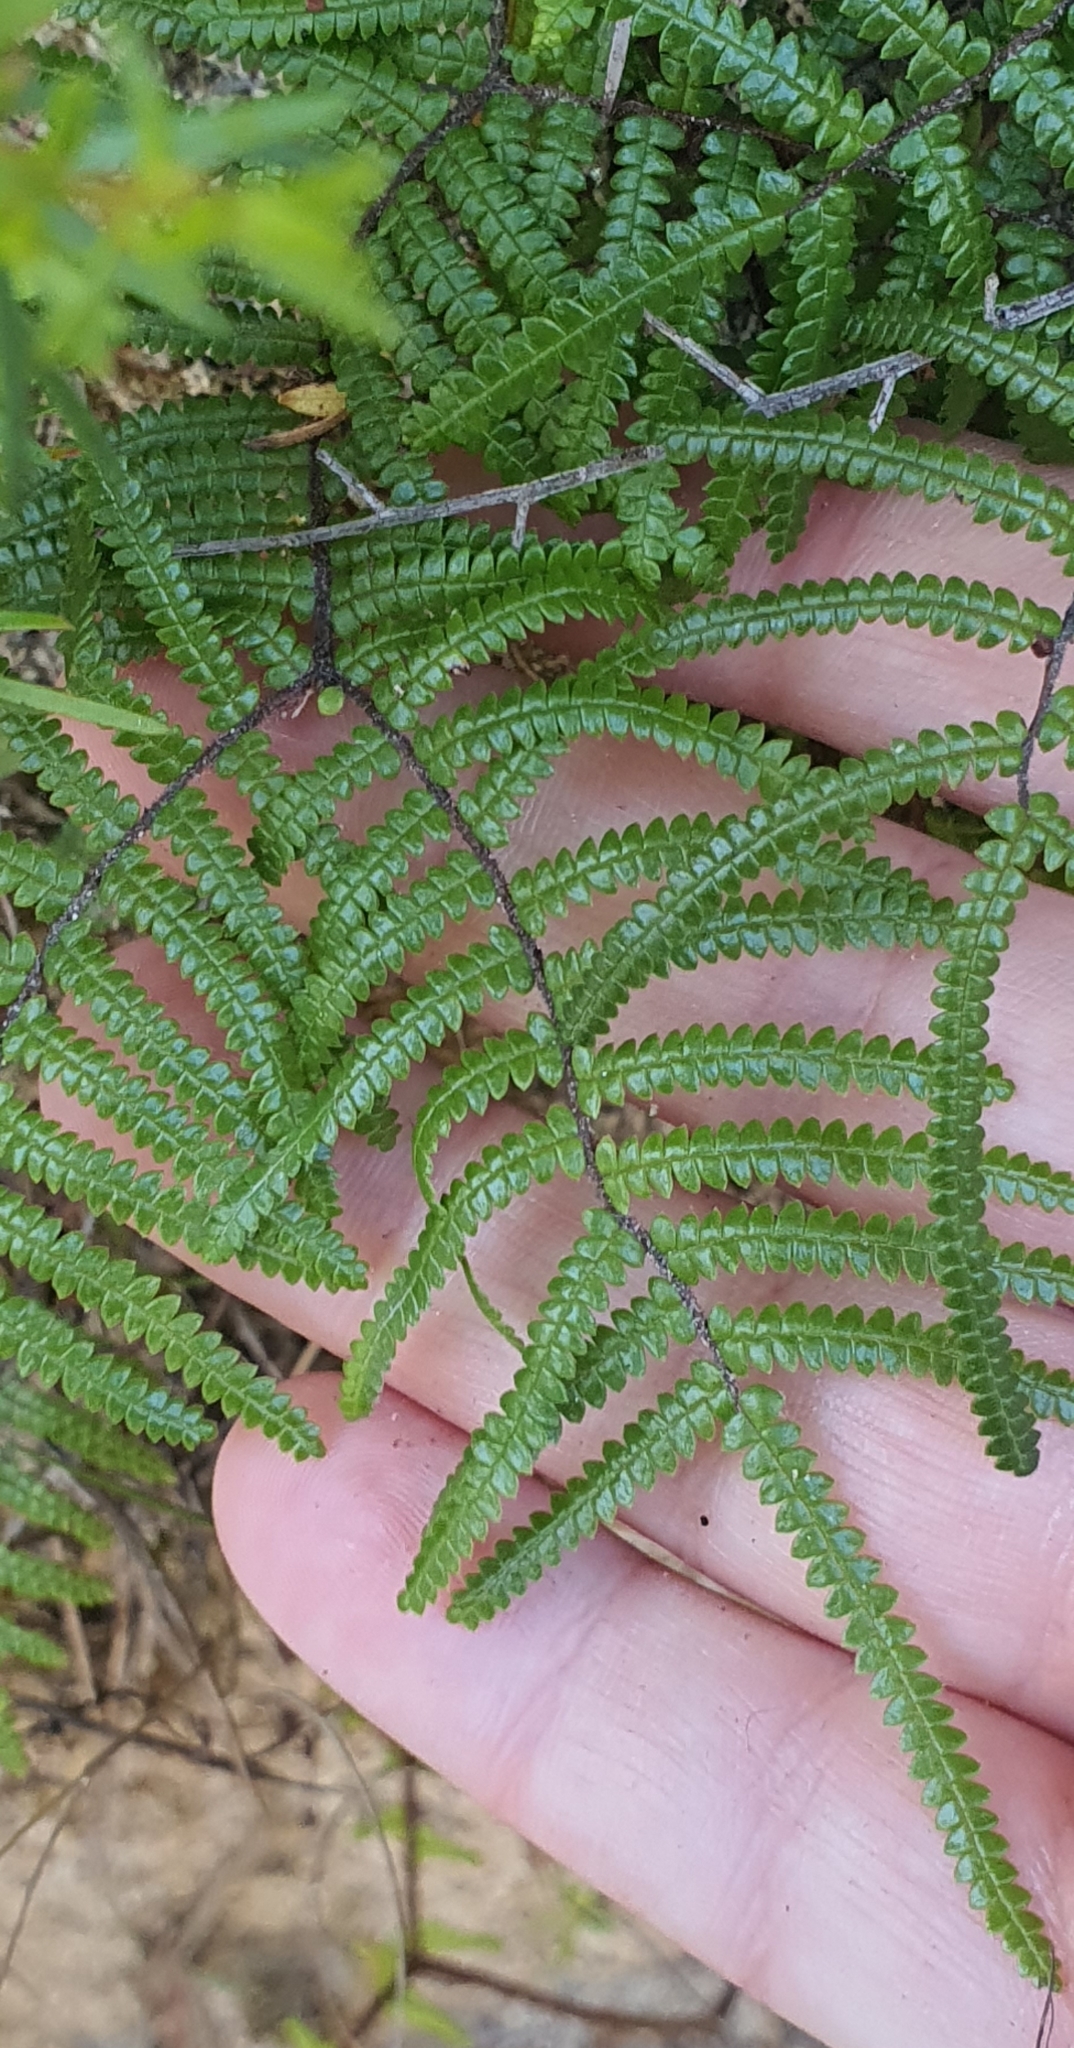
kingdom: Plantae
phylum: Tracheophyta
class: Polypodiopsida
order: Gleicheniales
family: Gleicheniaceae
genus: Gleichenia
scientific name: Gleichenia microphylla
